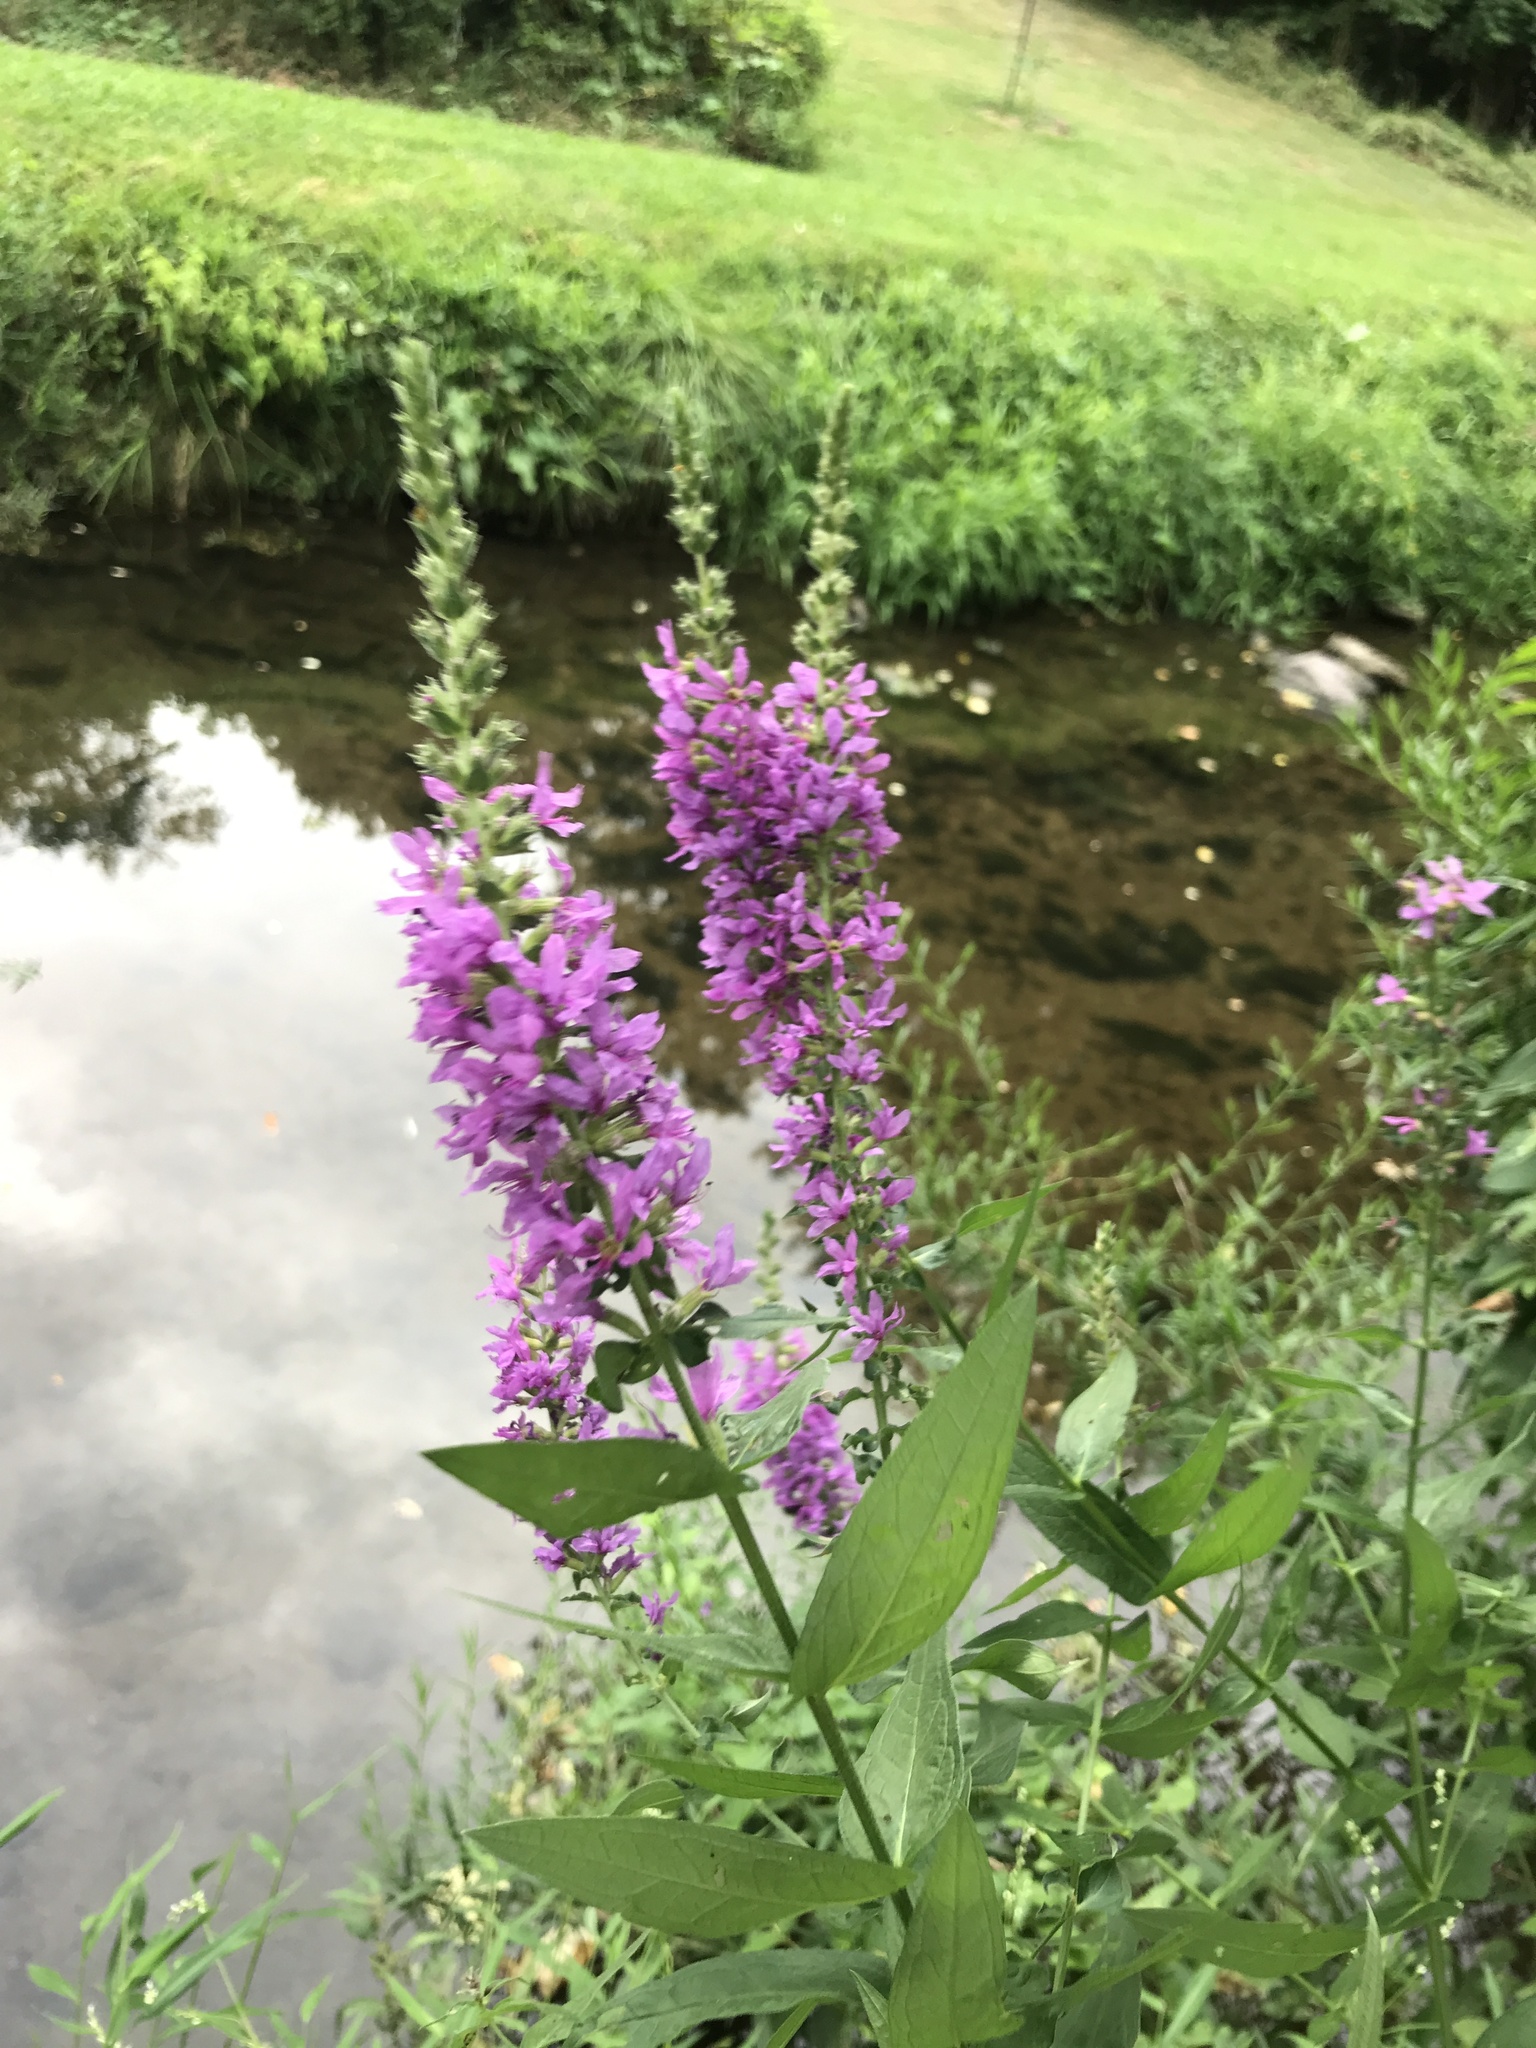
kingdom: Plantae
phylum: Tracheophyta
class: Magnoliopsida
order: Myrtales
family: Lythraceae
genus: Lythrum
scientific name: Lythrum salicaria
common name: Purple loosestrife
